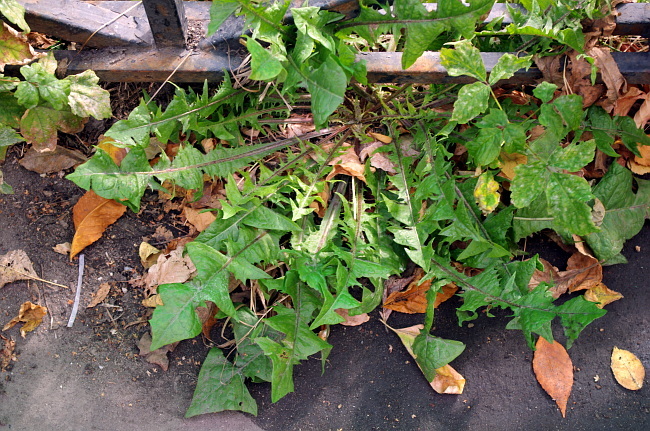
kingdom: Plantae
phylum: Tracheophyta
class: Magnoliopsida
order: Asterales
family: Asteraceae
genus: Taraxacum
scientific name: Taraxacum officinale
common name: Common dandelion
